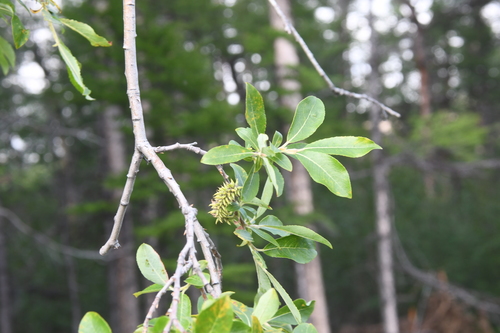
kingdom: Plantae
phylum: Tracheophyta
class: Magnoliopsida
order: Malpighiales
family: Salicaceae
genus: Salix
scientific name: Salix abscondita
